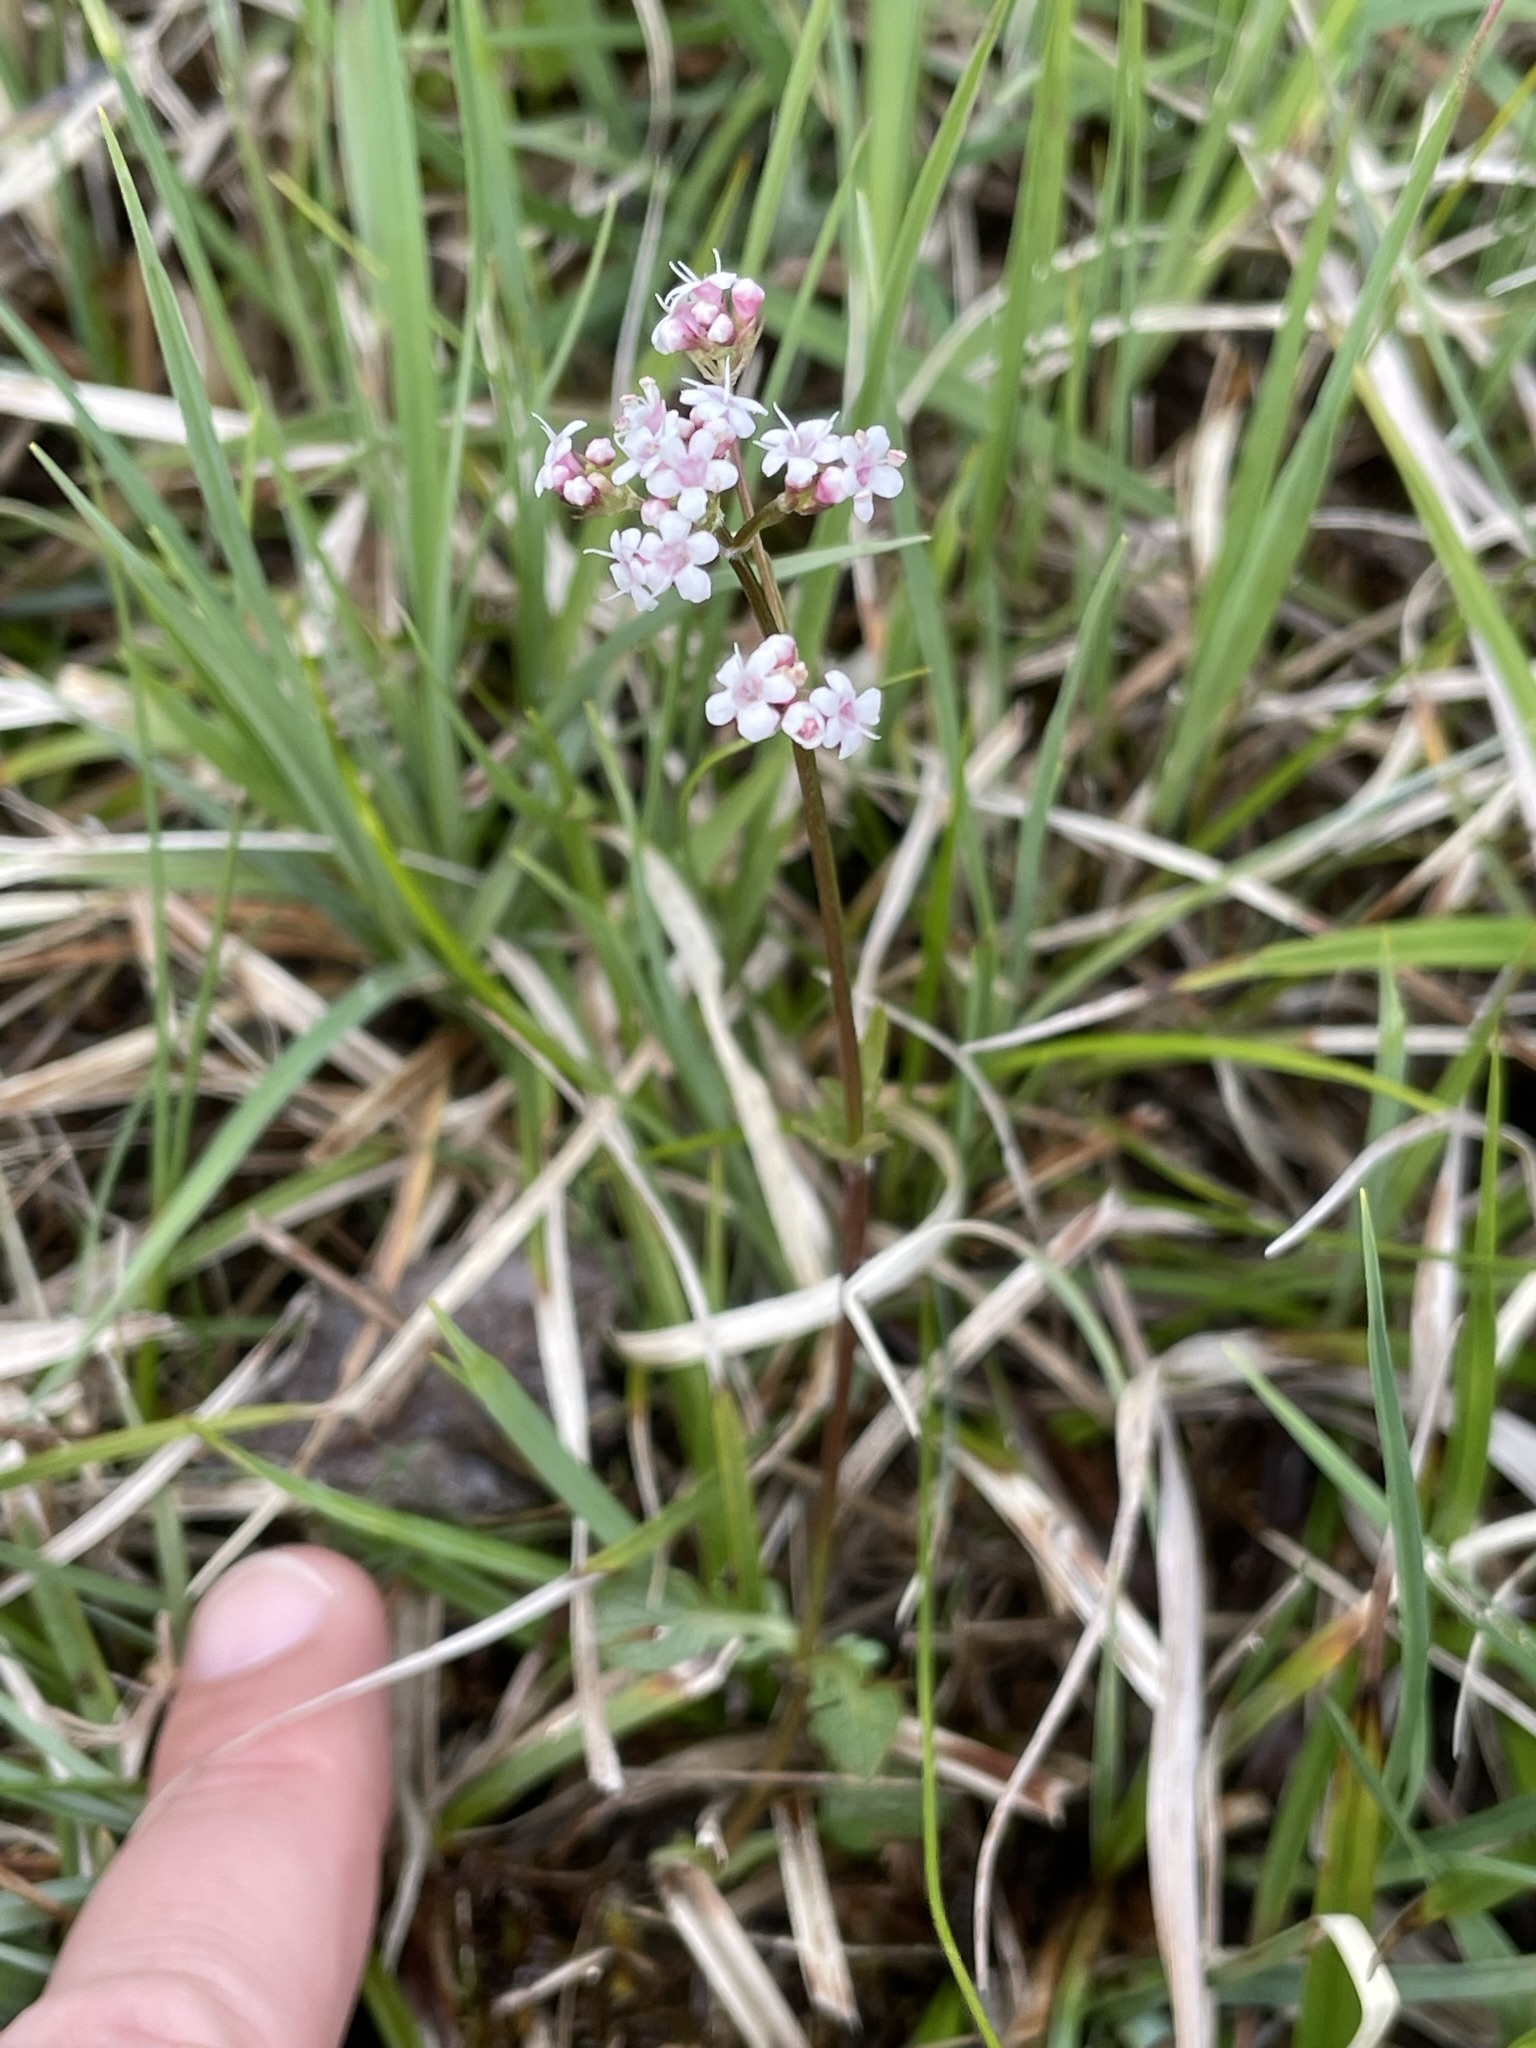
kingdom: Plantae
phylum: Tracheophyta
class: Magnoliopsida
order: Dipsacales
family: Caprifoliaceae
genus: Valeriana
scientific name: Valeriana dioica
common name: Marsh valerian
